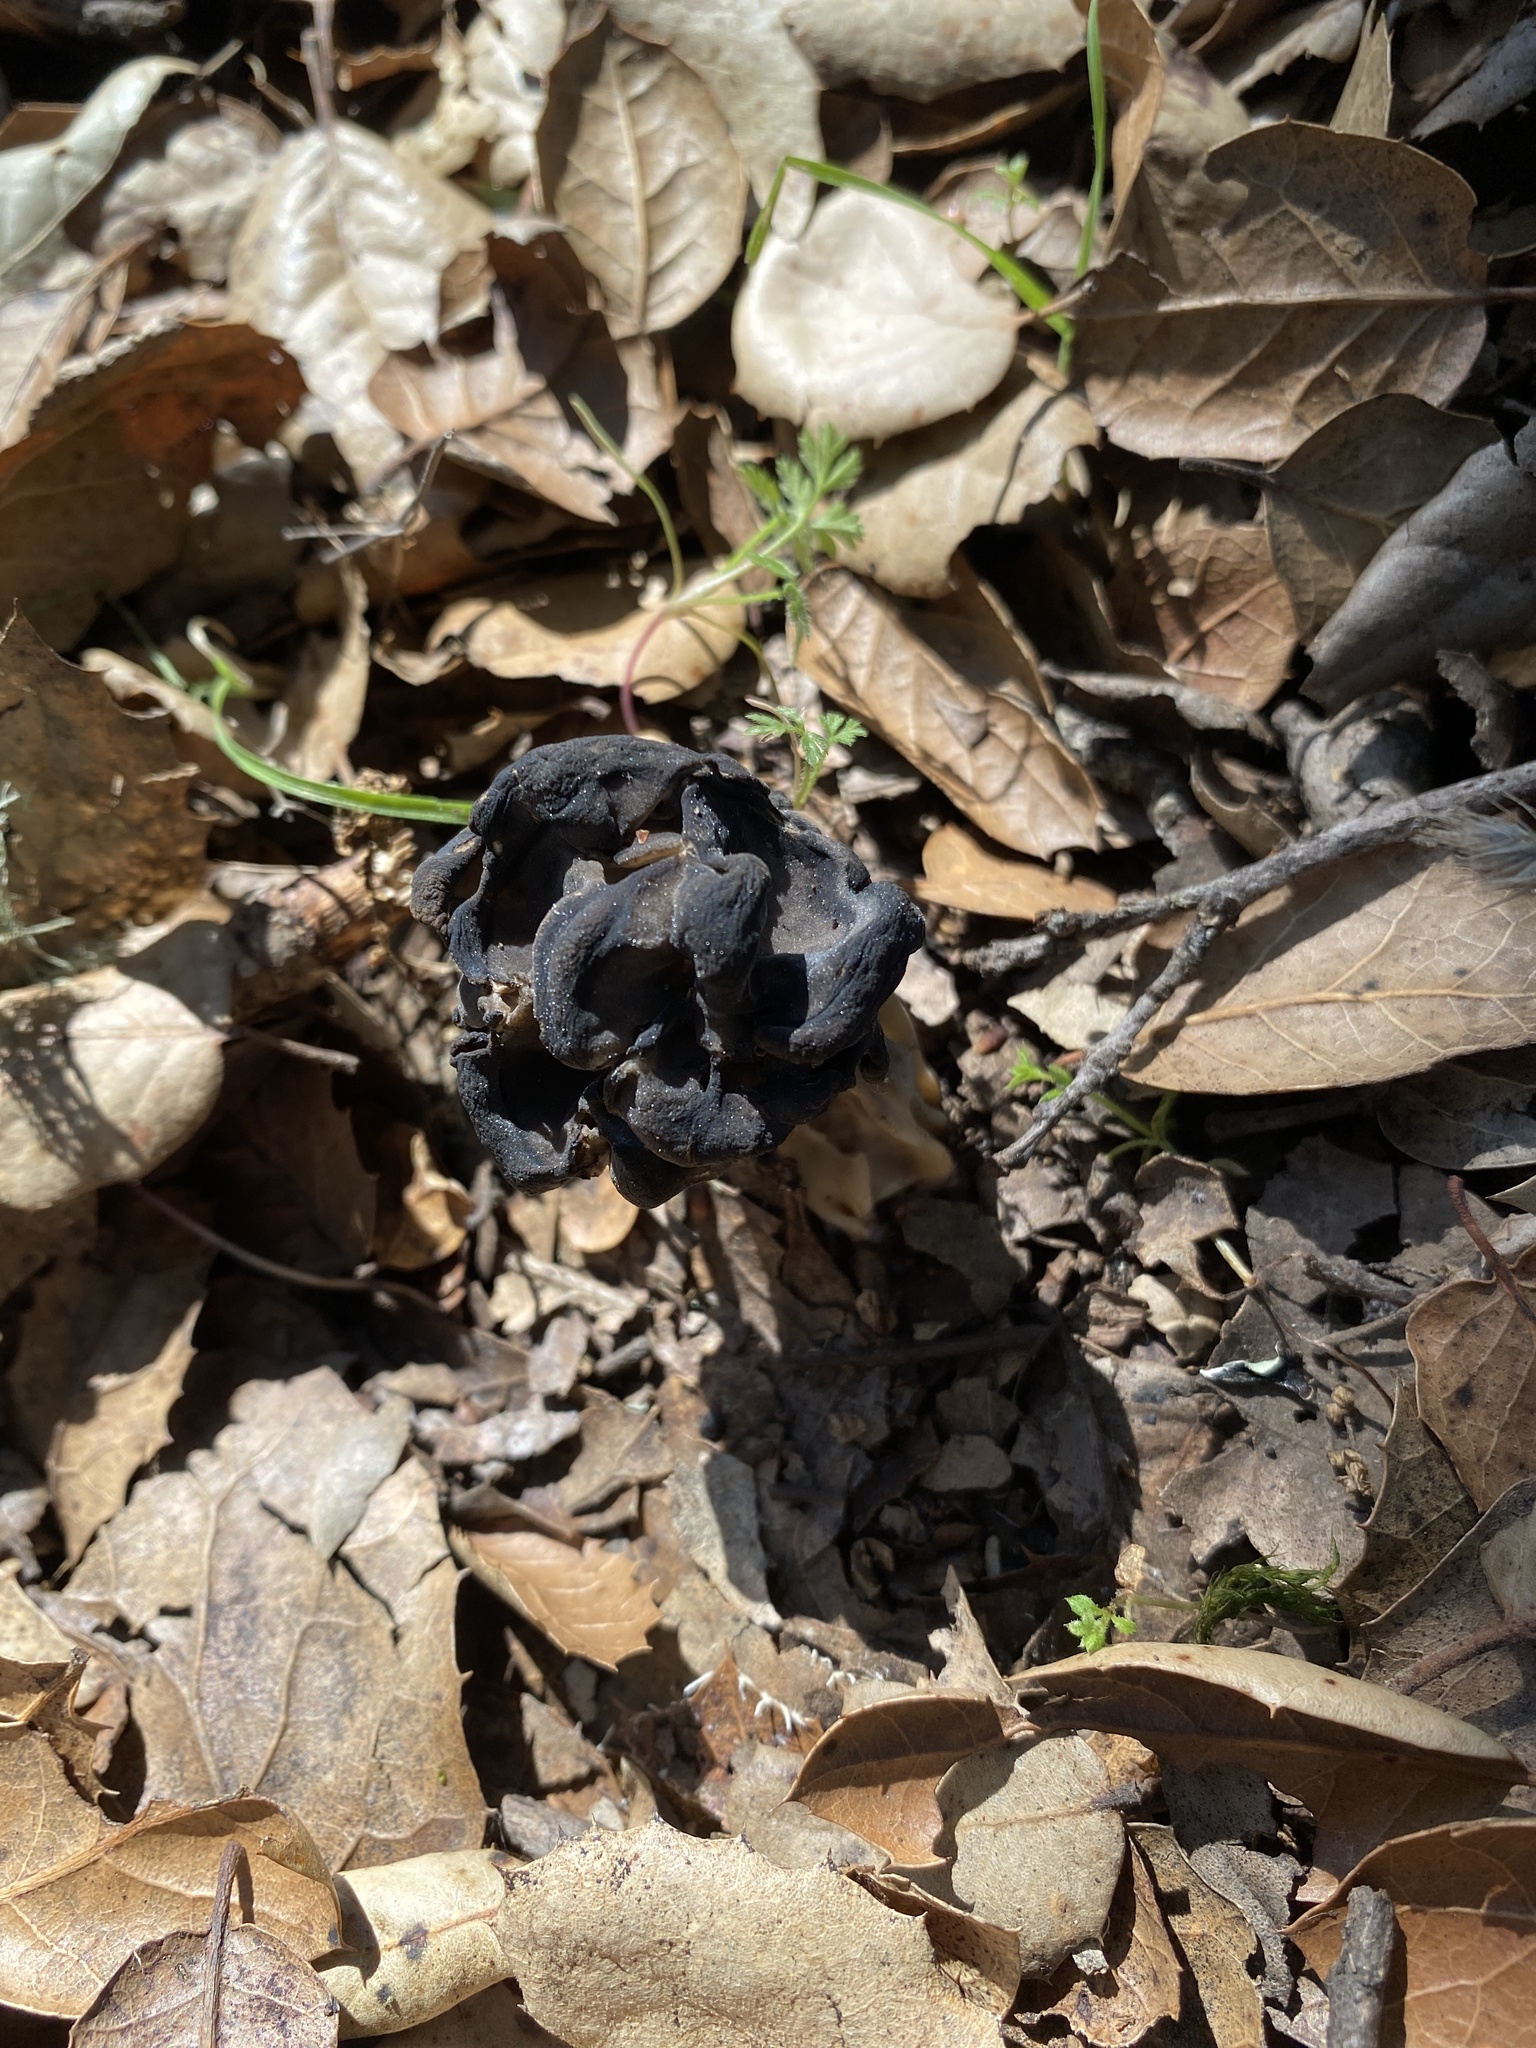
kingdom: Fungi
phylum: Ascomycota
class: Pezizomycetes
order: Pezizales
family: Helvellaceae
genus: Helvella
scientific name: Helvella dryophila
